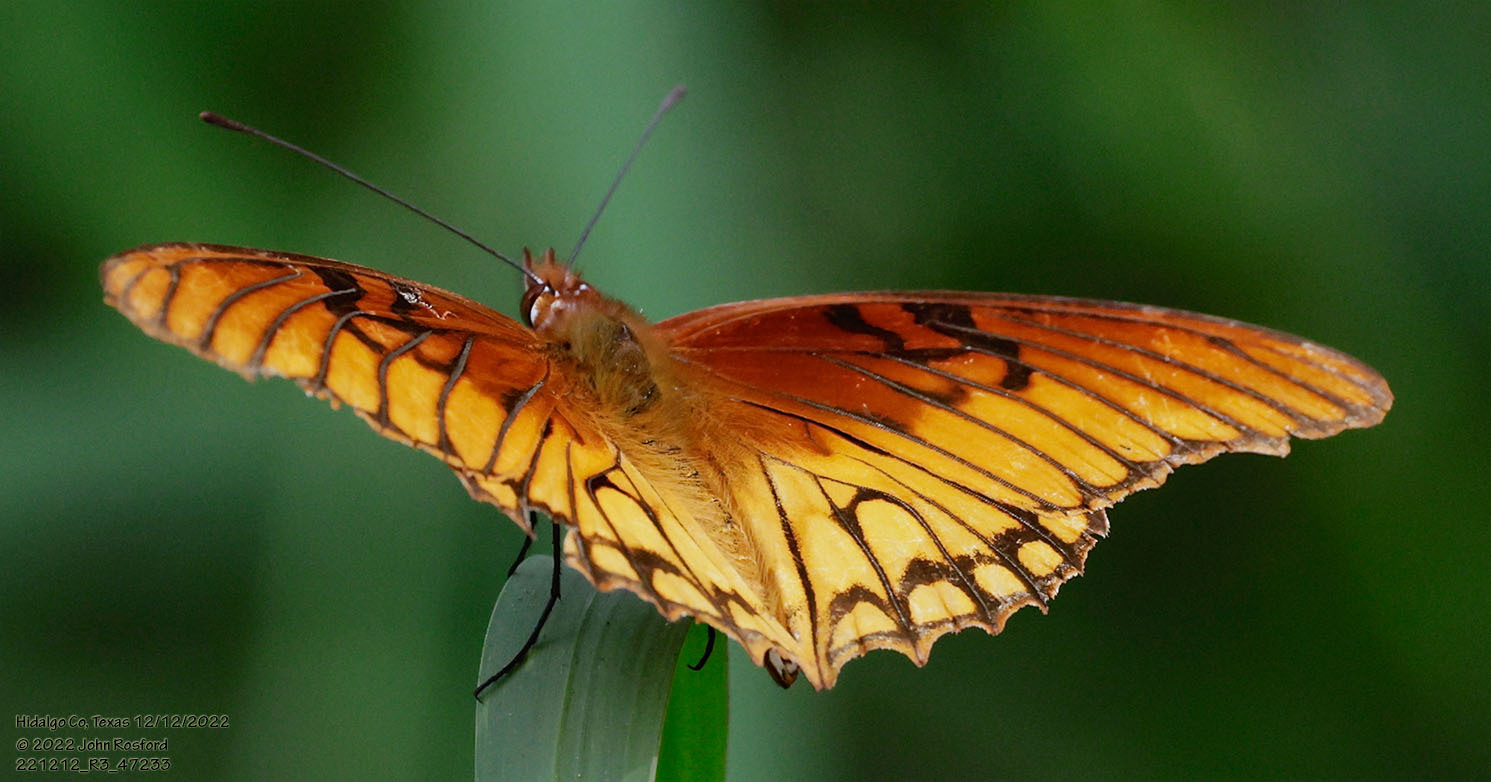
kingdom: Animalia
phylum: Arthropoda
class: Insecta
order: Lepidoptera
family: Nymphalidae
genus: Dione
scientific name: Dione moneta
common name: Mexican silverspot
